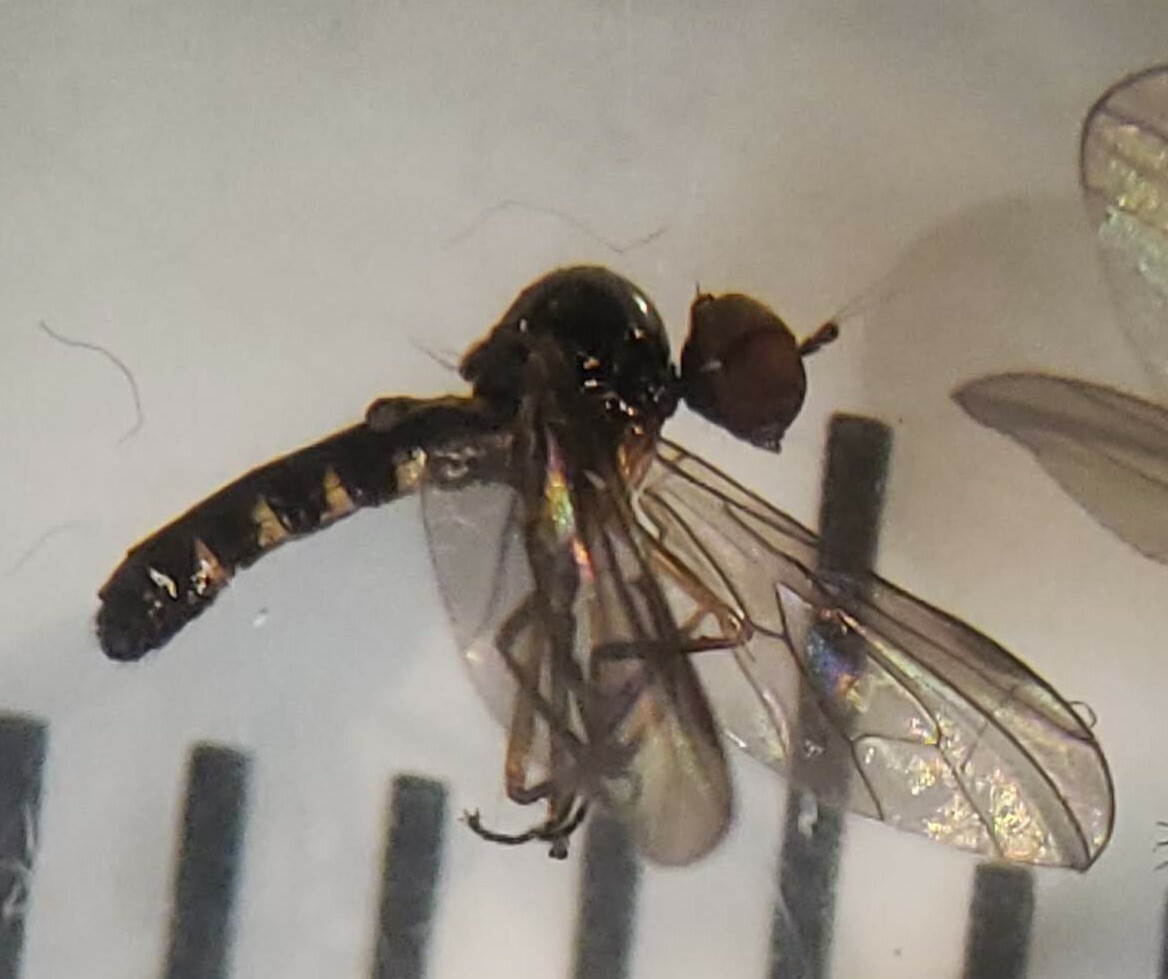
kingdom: Animalia
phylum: Arthropoda
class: Insecta
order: Diptera
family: Hybotidae
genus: Ocydromia
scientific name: Ocydromia glabricula
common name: Dance fly
